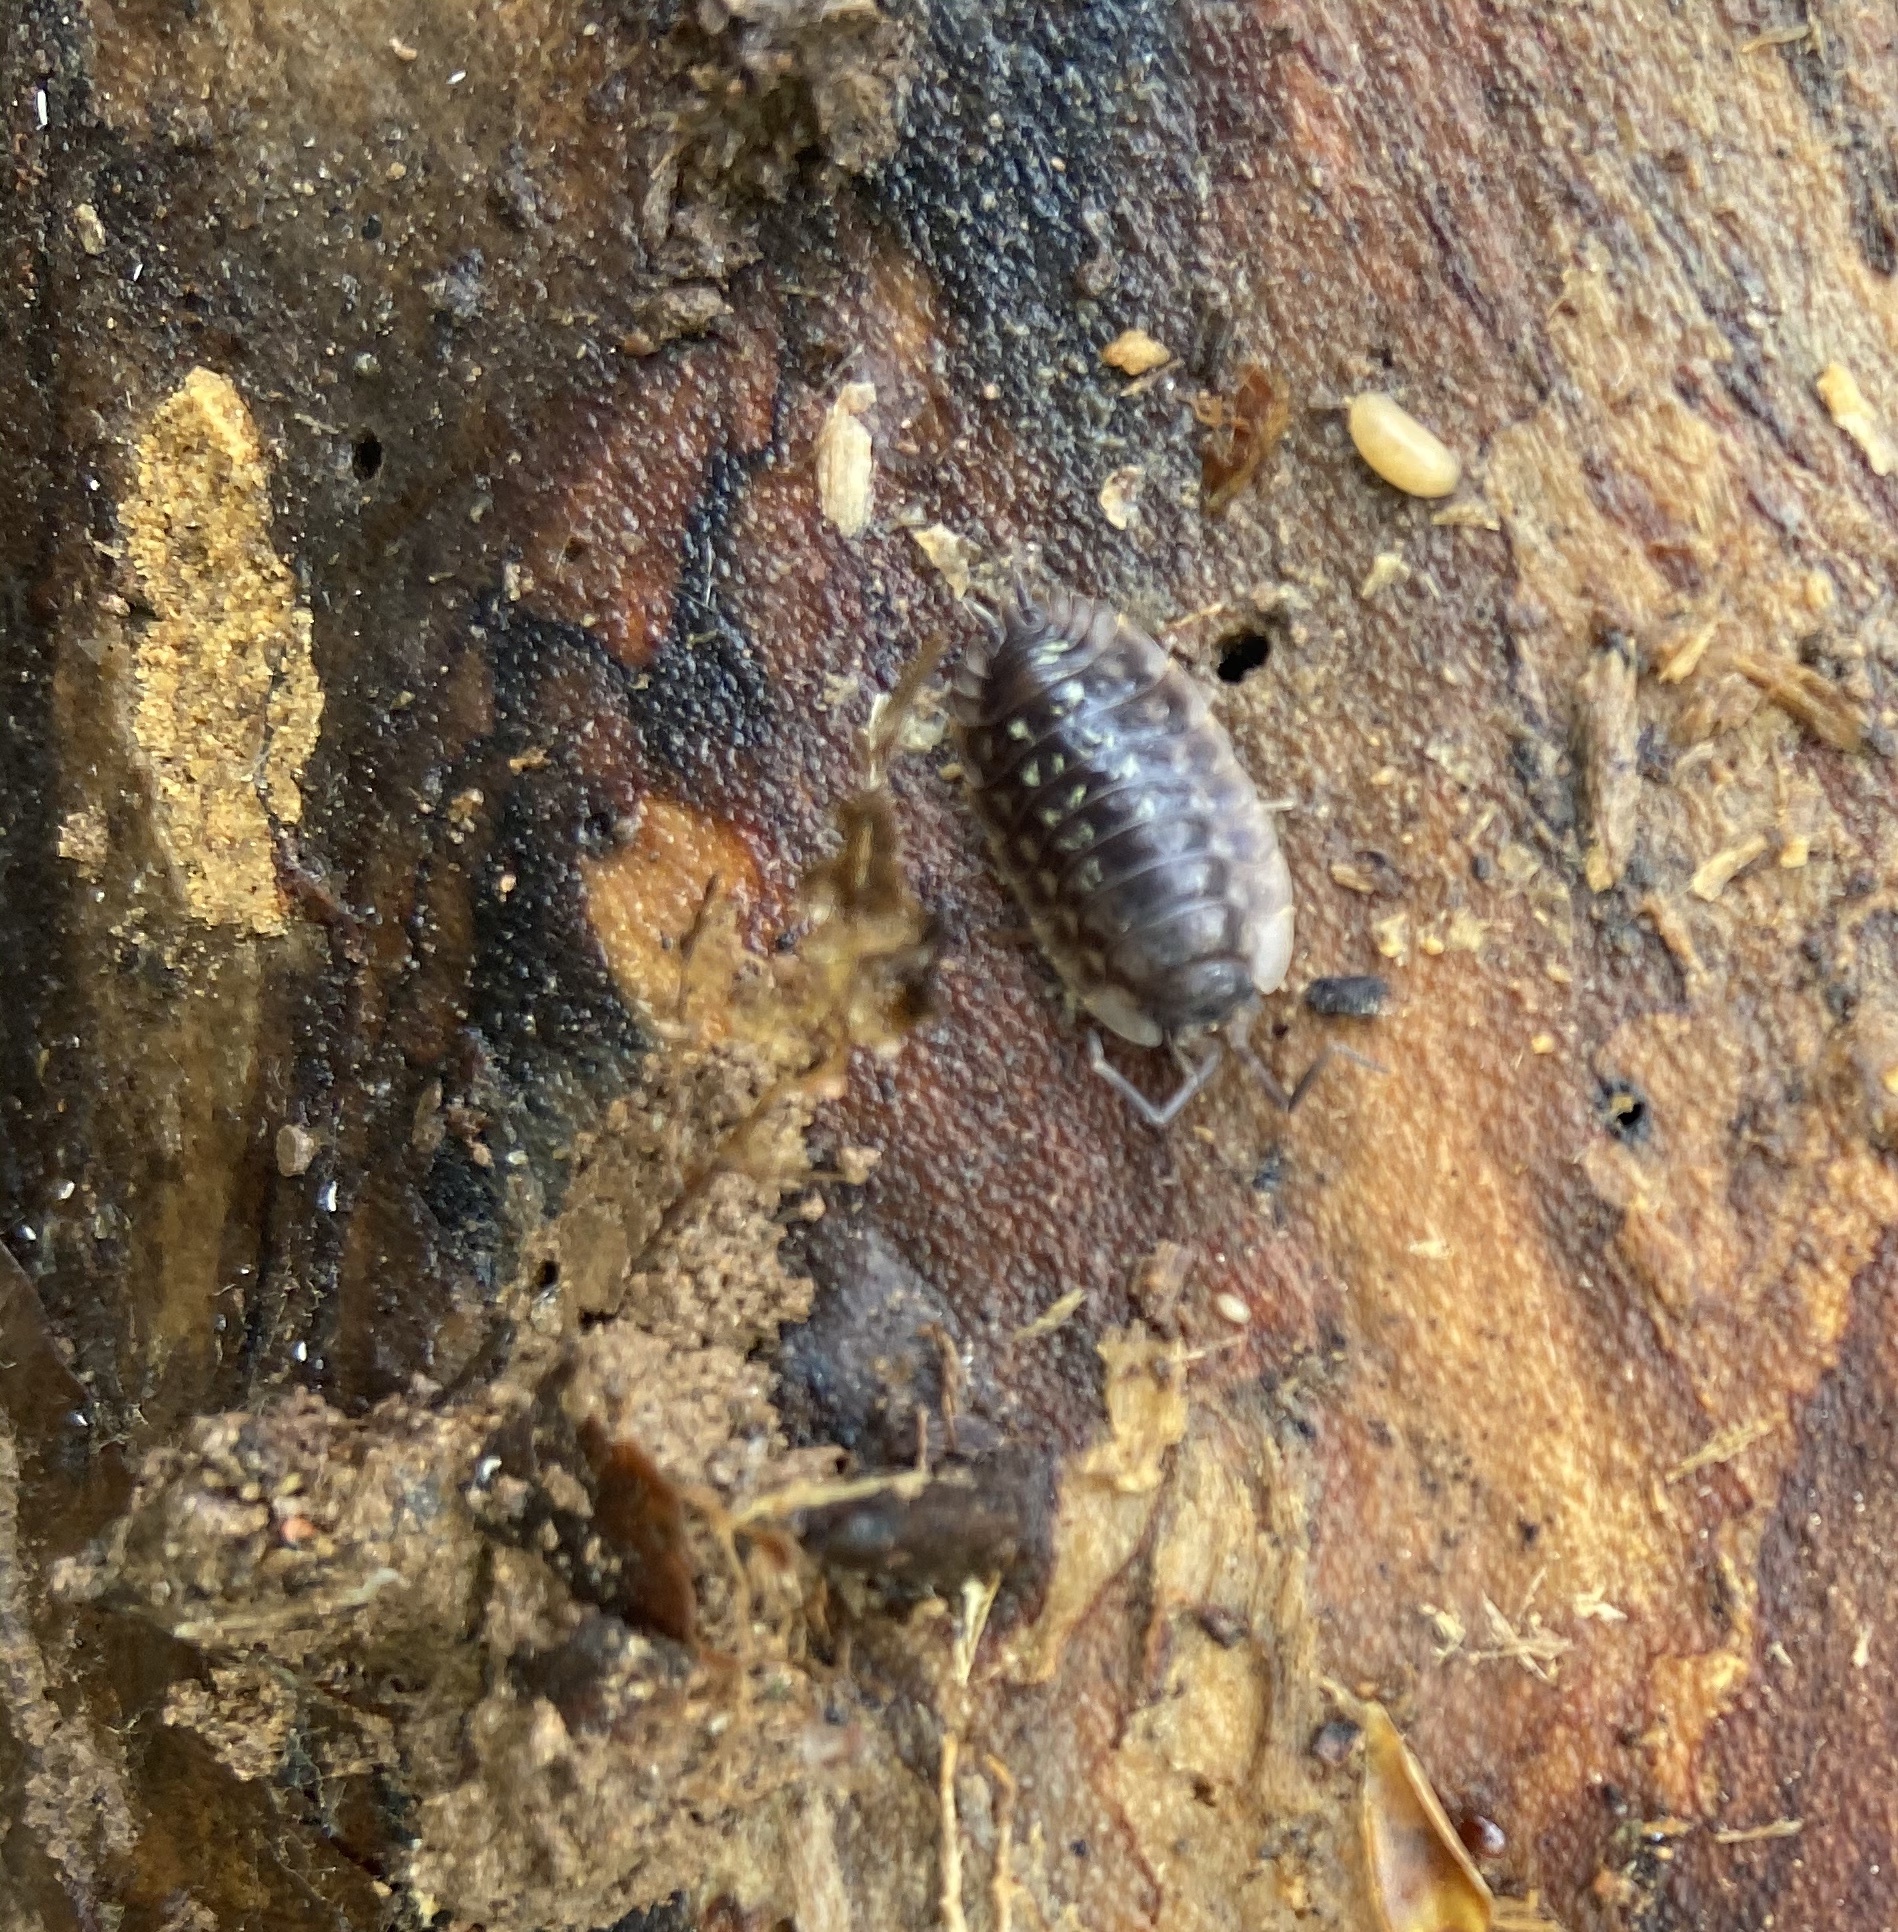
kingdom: Animalia
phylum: Arthropoda
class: Malacostraca
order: Isopoda
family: Oniscidae
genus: Oniscus
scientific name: Oniscus asellus
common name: Common shiny woodlouse
